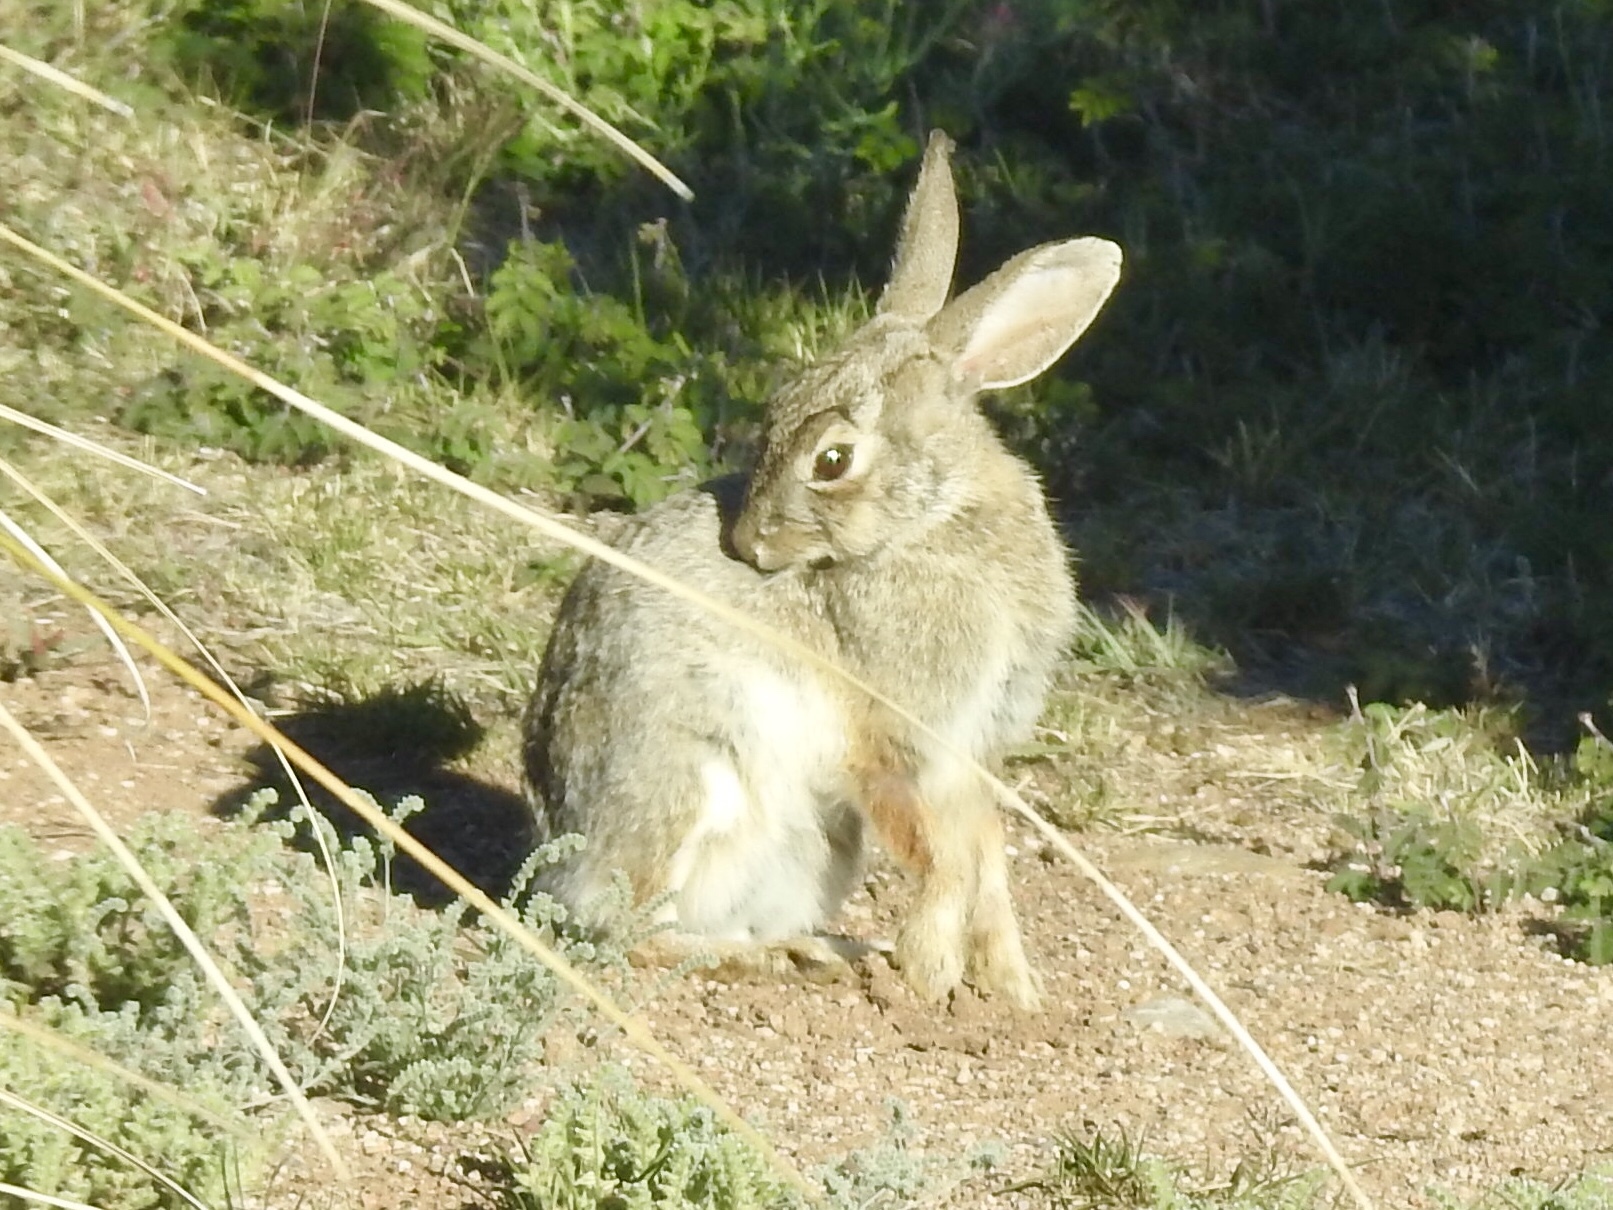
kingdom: Animalia
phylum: Chordata
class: Mammalia
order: Lagomorpha
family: Leporidae
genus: Sylvilagus
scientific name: Sylvilagus audubonii
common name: Desert cottontail
